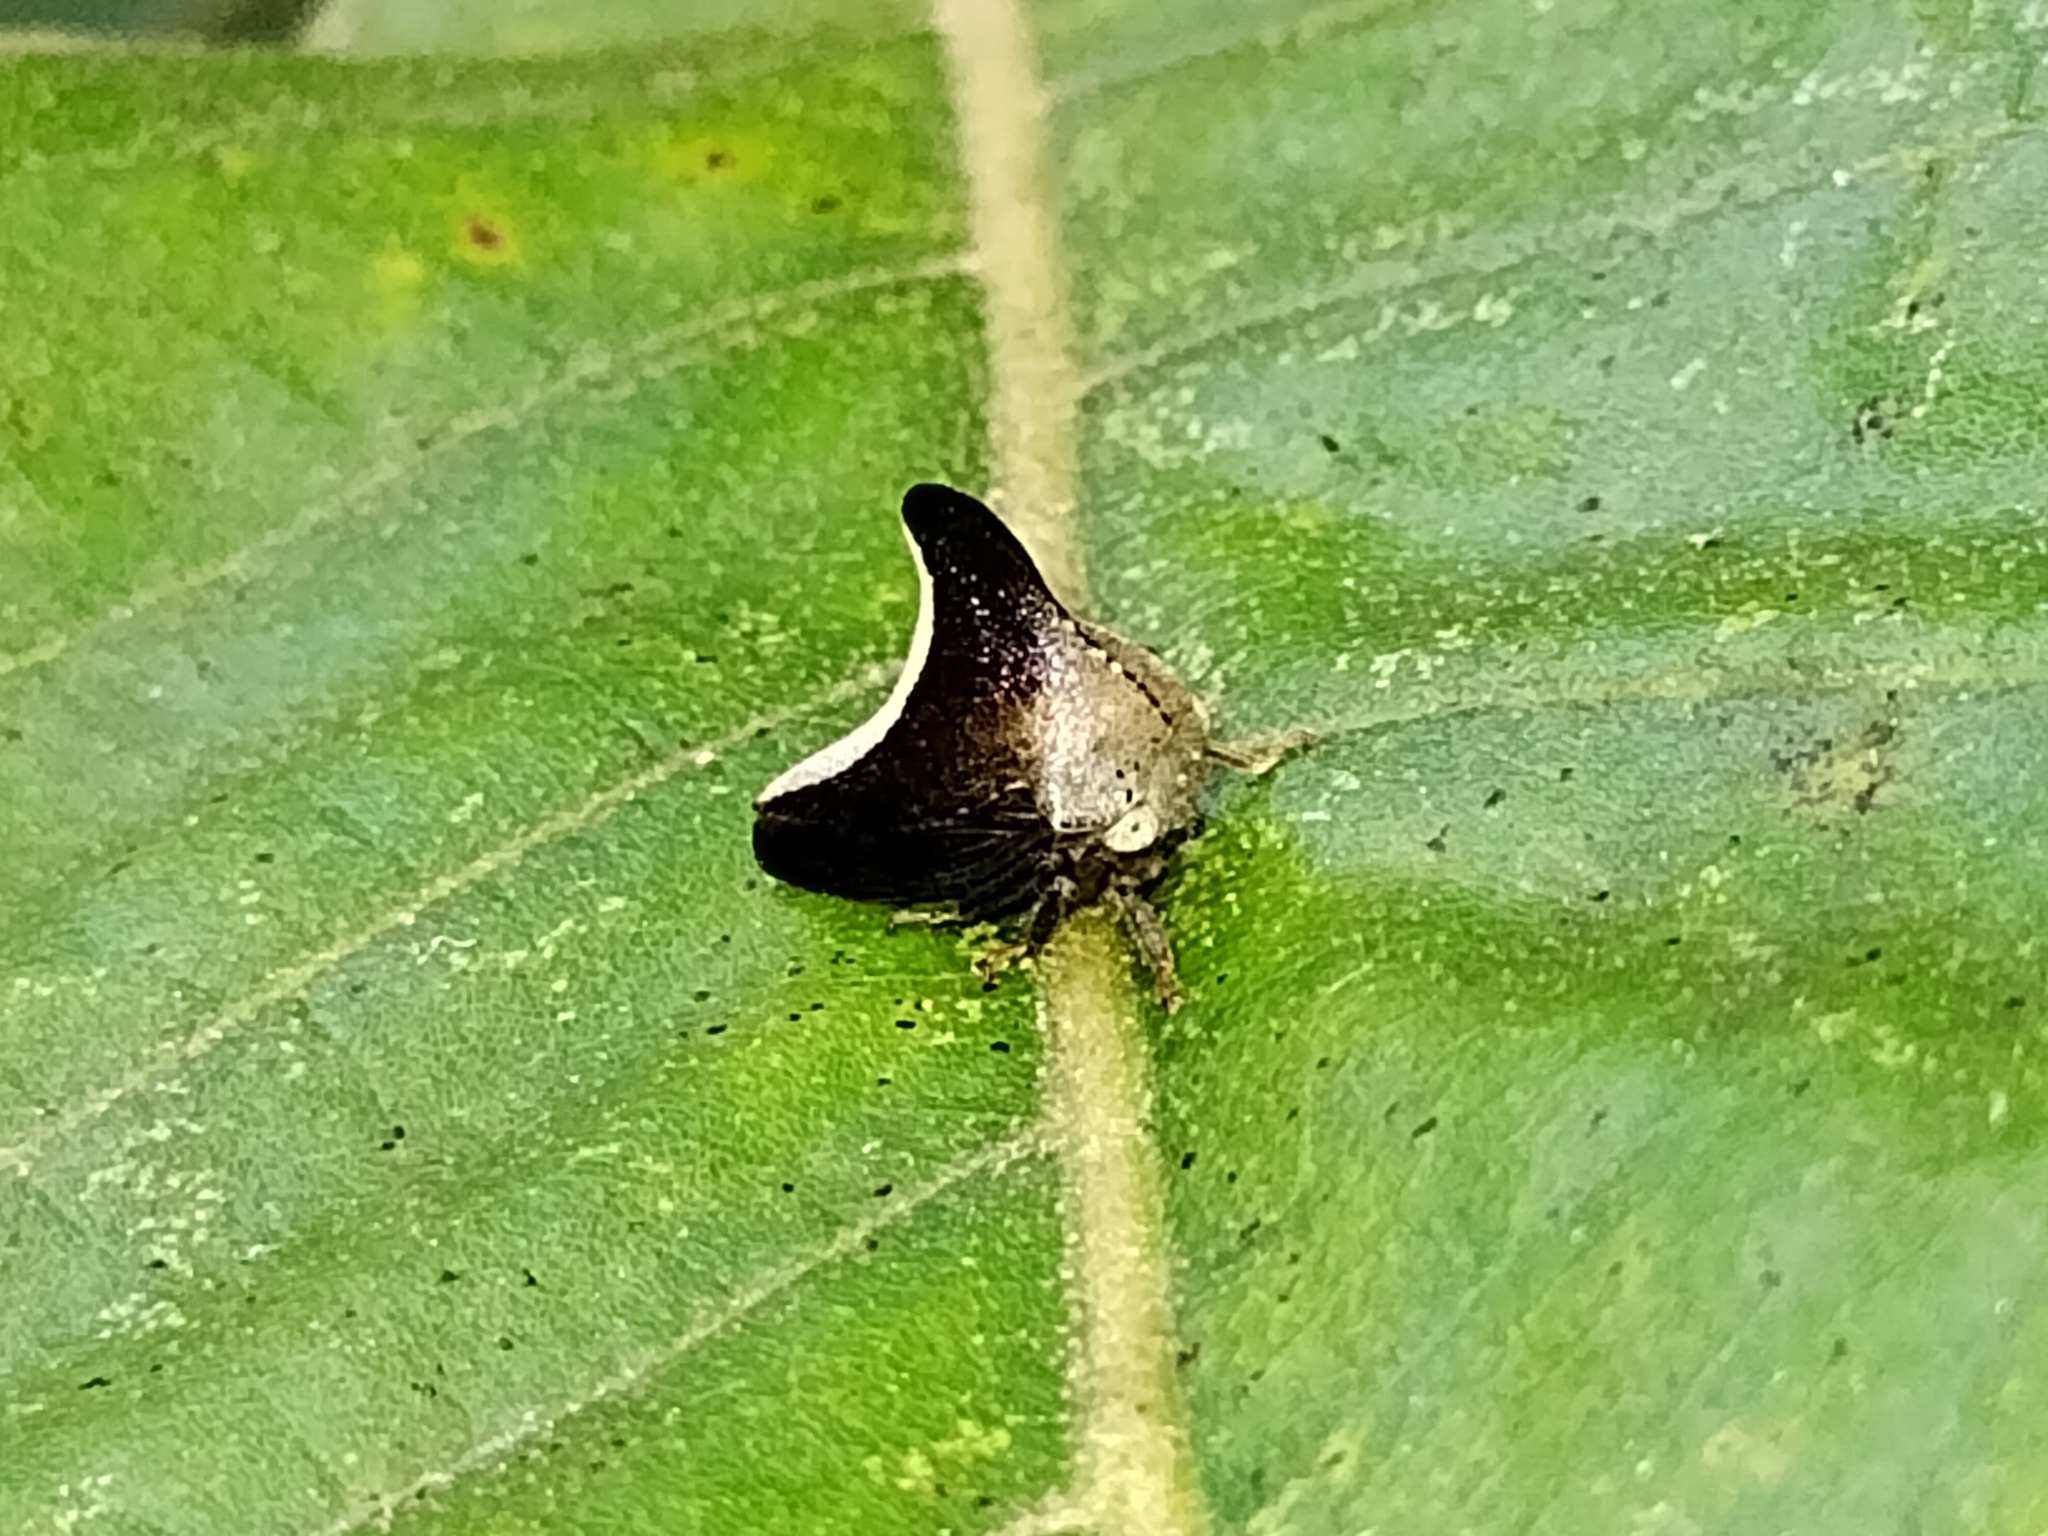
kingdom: Animalia
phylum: Arthropoda
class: Insecta
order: Hemiptera
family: Membracidae
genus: Glossonotus
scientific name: Glossonotus univittatus
